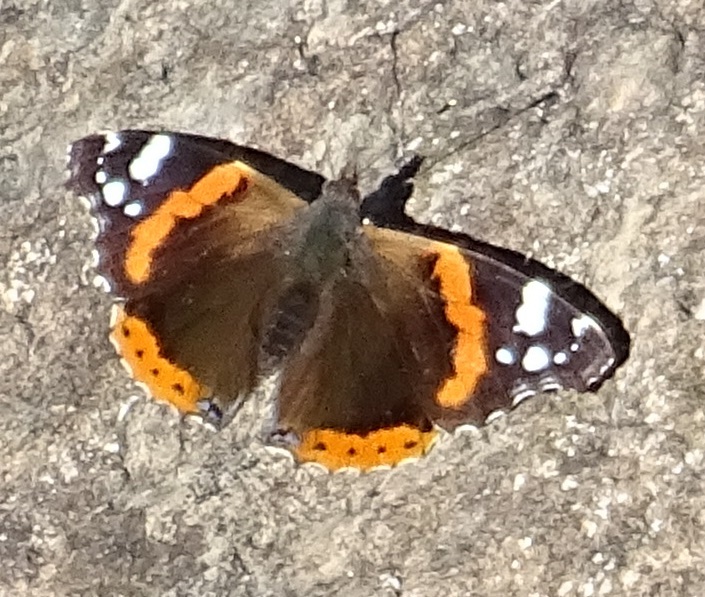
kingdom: Animalia
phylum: Arthropoda
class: Insecta
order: Lepidoptera
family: Nymphalidae
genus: Vanessa
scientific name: Vanessa atalanta
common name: Red admiral
